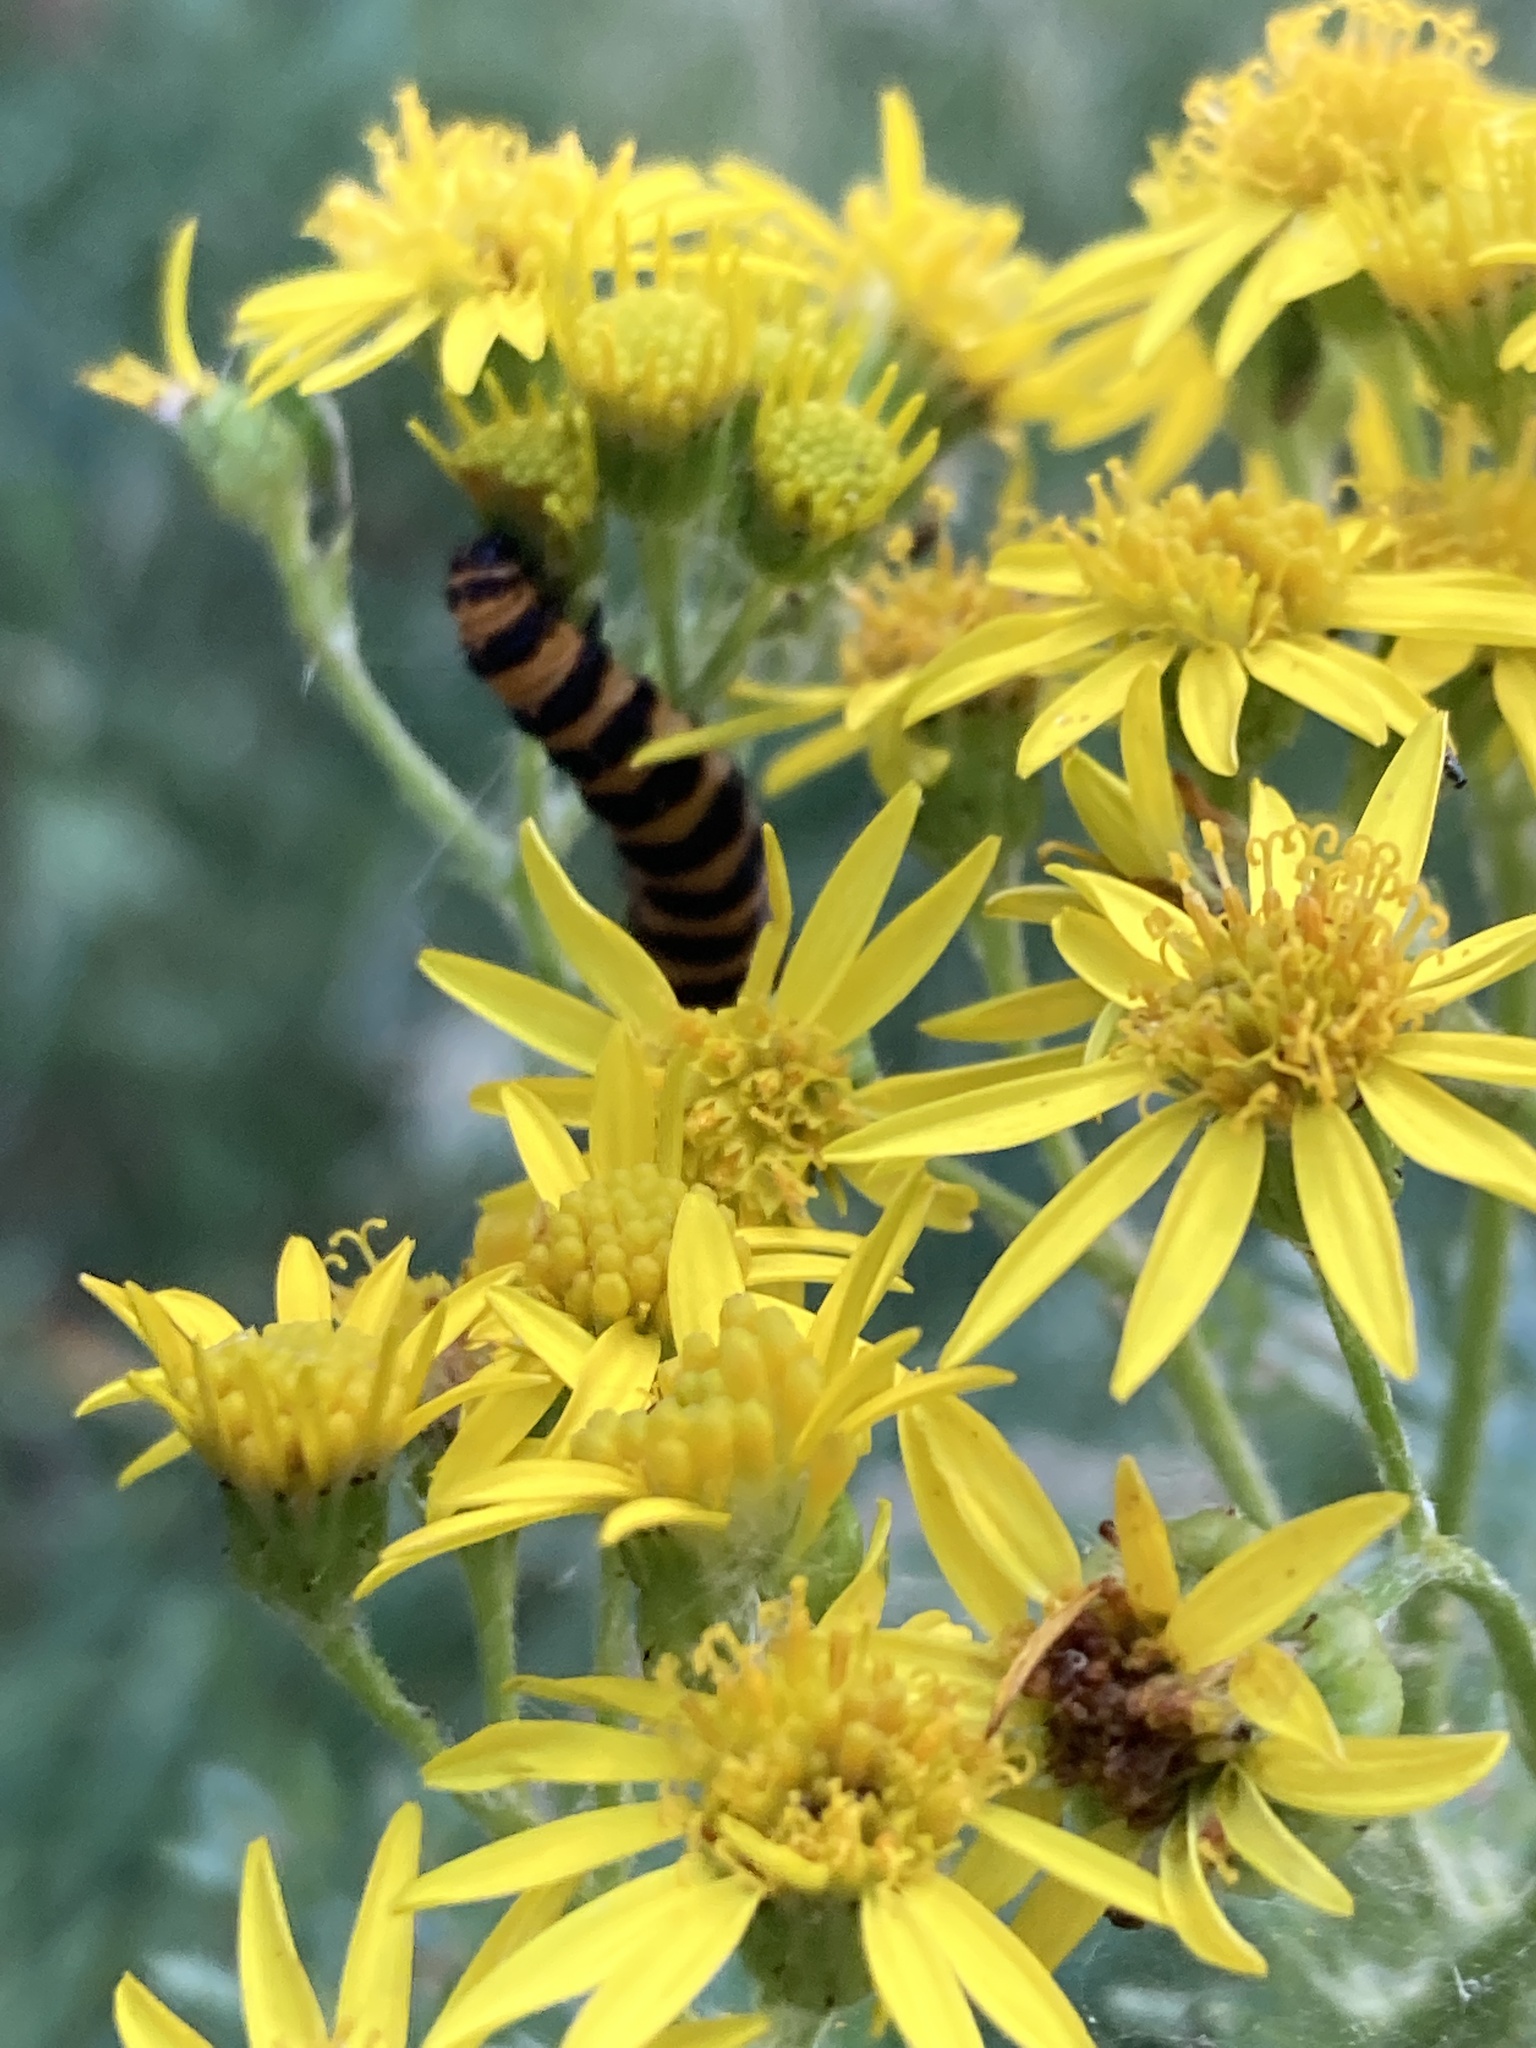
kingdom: Animalia
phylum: Arthropoda
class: Insecta
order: Lepidoptera
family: Erebidae
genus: Tyria
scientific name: Tyria jacobaeae
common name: Cinnabar
